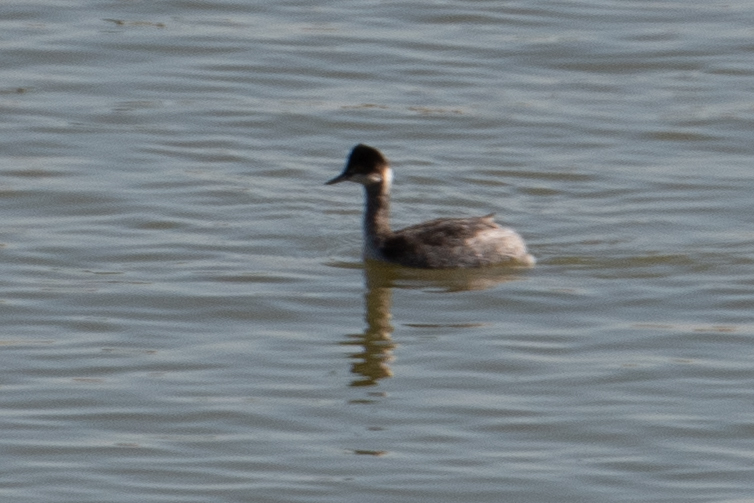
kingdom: Animalia
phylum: Chordata
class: Aves
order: Podicipediformes
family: Podicipedidae
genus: Podiceps
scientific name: Podiceps nigricollis
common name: Black-necked grebe
